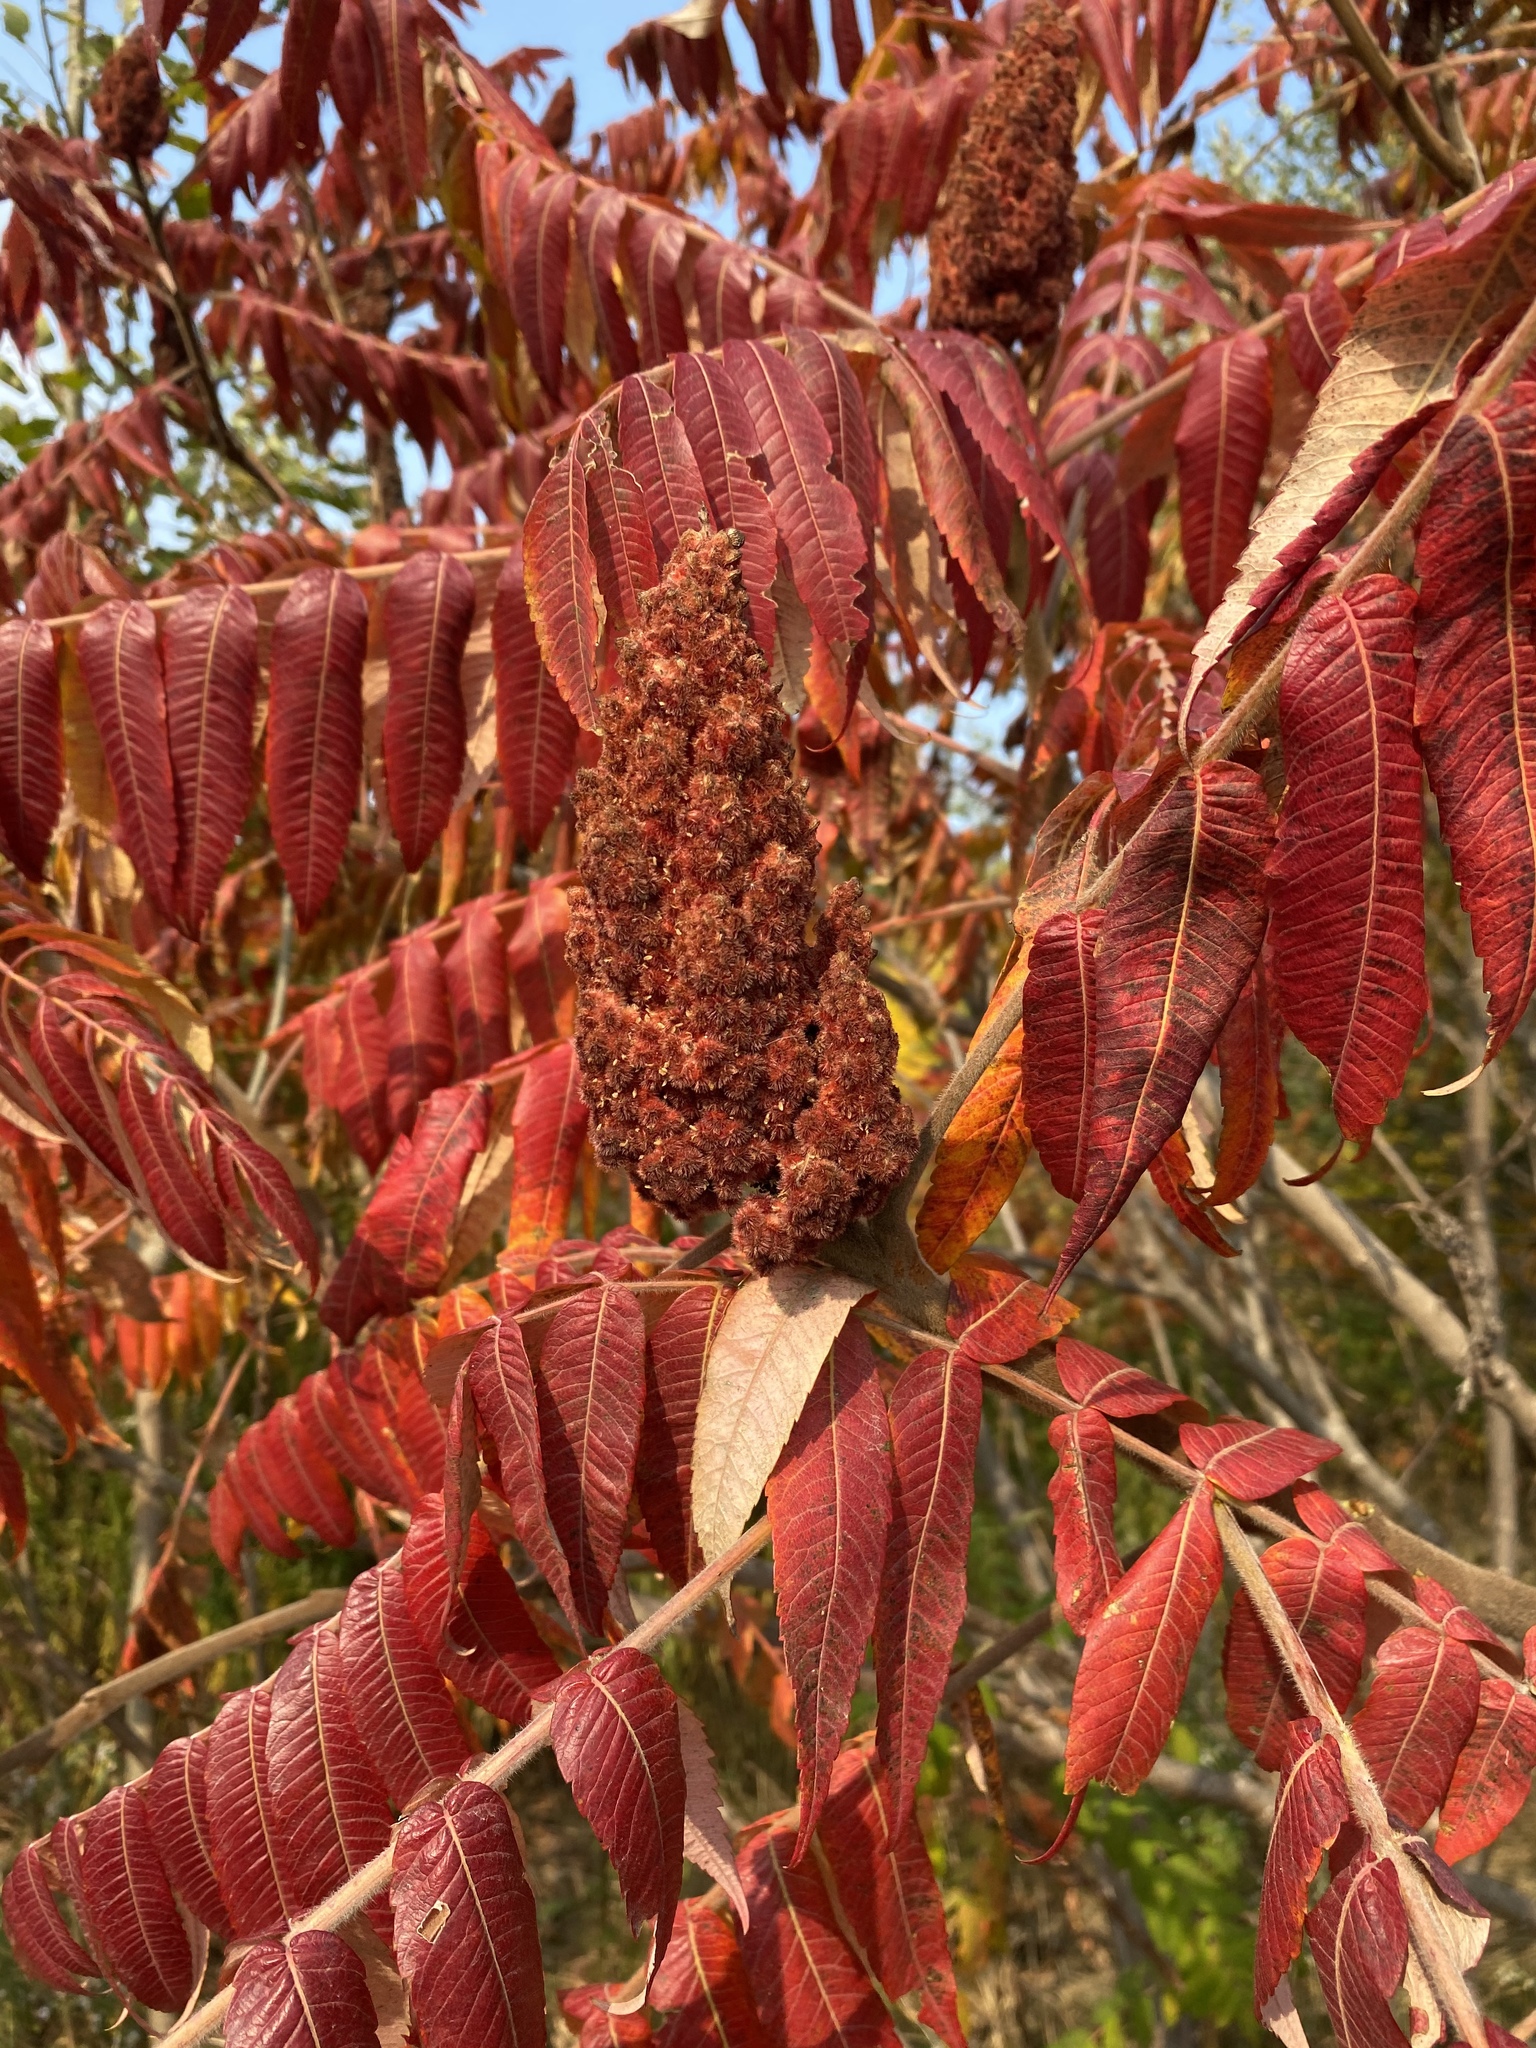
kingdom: Plantae
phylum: Tracheophyta
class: Magnoliopsida
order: Sapindales
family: Anacardiaceae
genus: Rhus
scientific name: Rhus typhina
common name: Staghorn sumac
